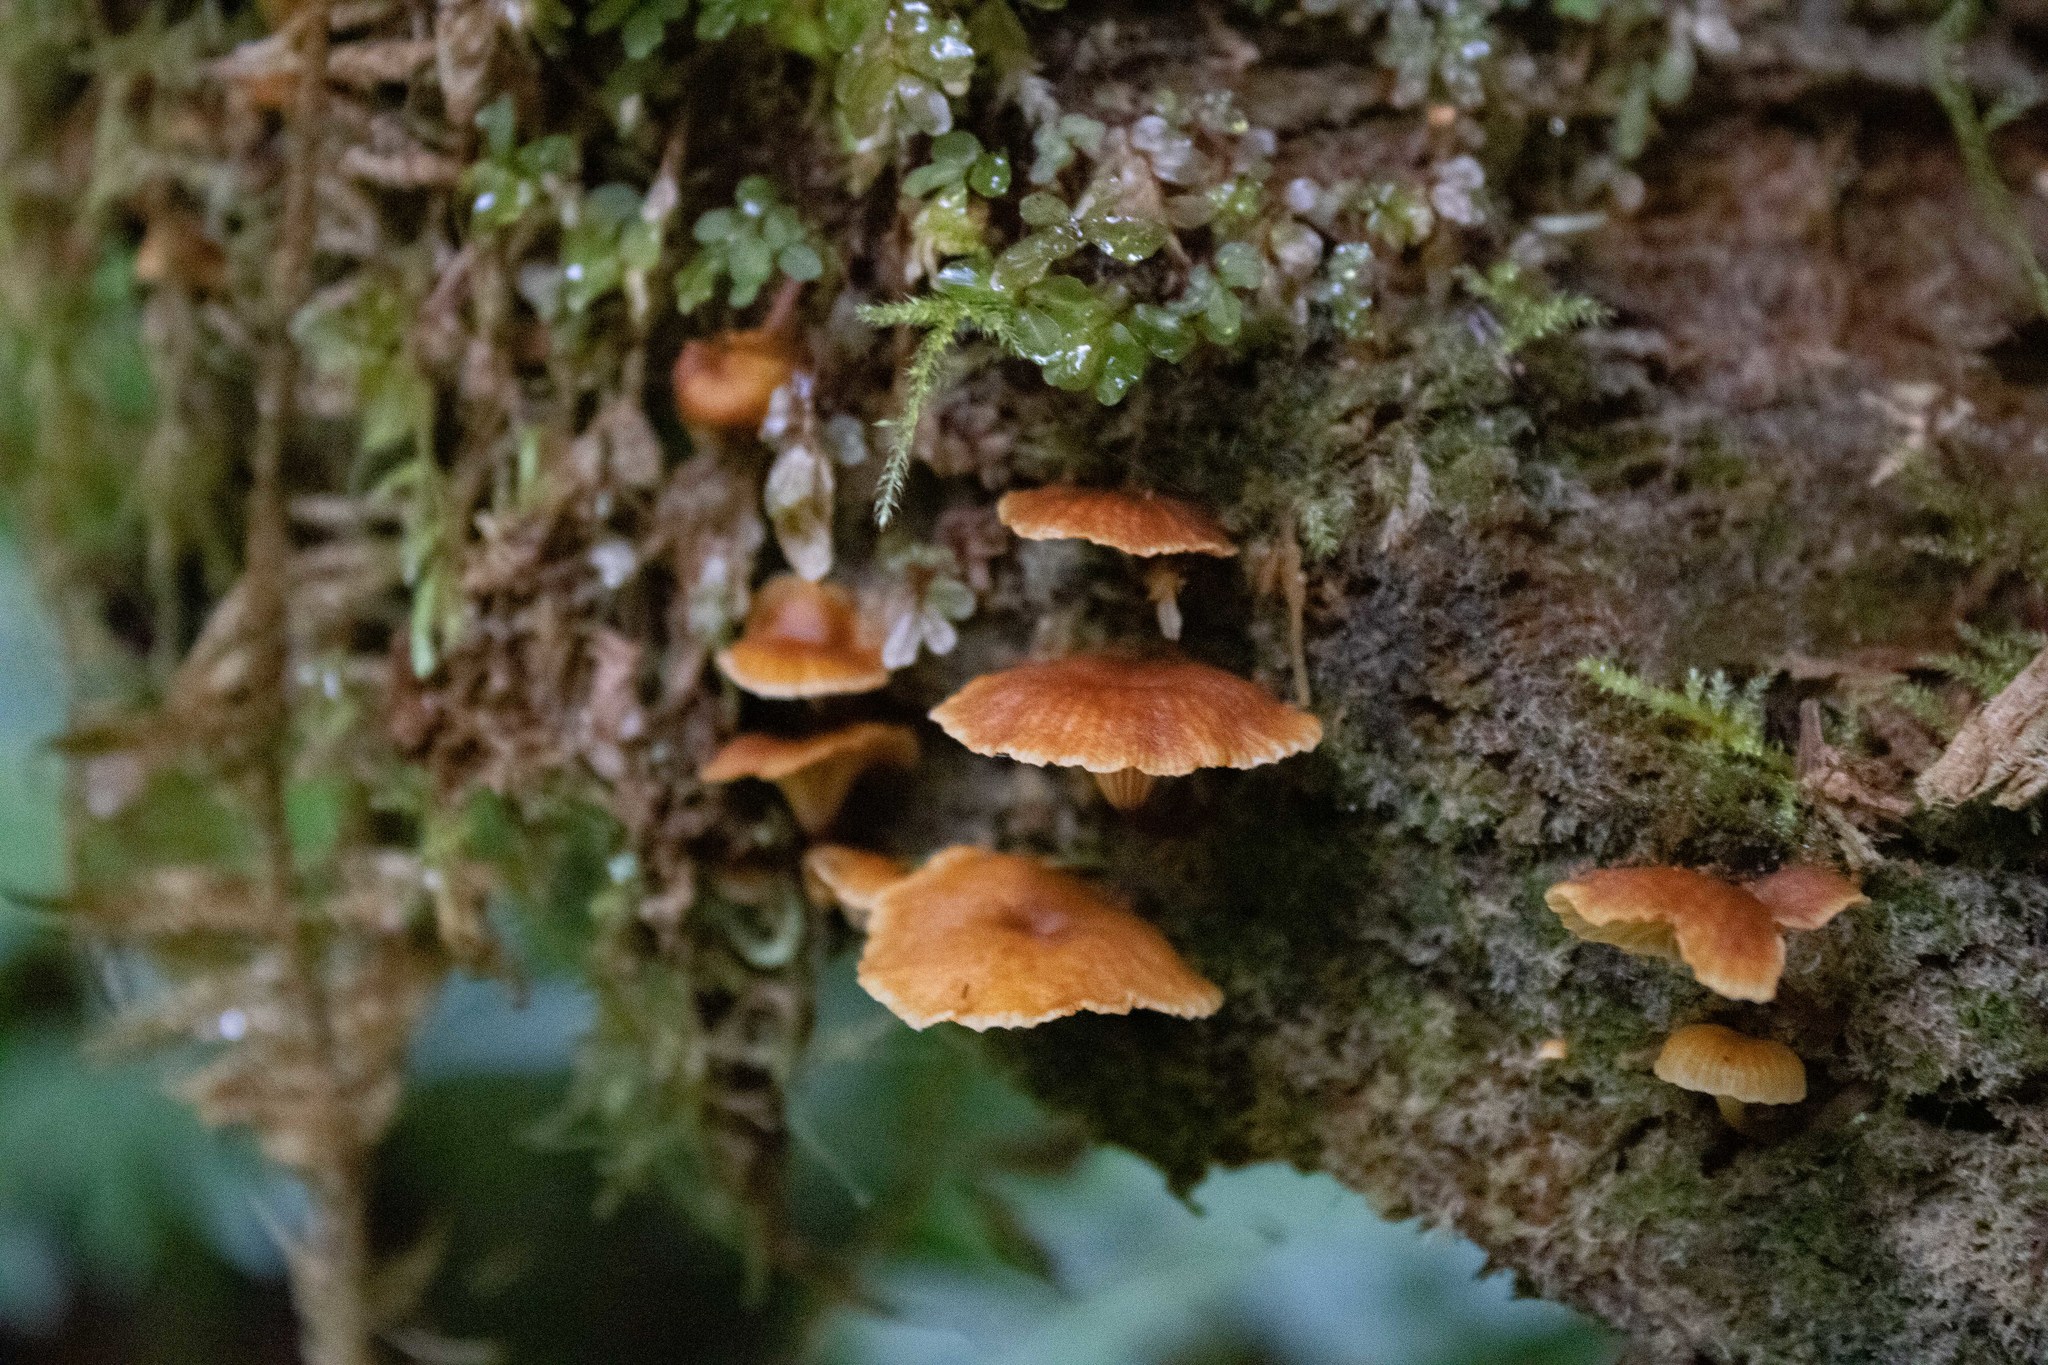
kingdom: Fungi
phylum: Basidiomycota
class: Agaricomycetes
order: Agaricales
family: Mycenaceae
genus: Xeromphalina
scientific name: Xeromphalina campanella
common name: Pinewood gingertail
